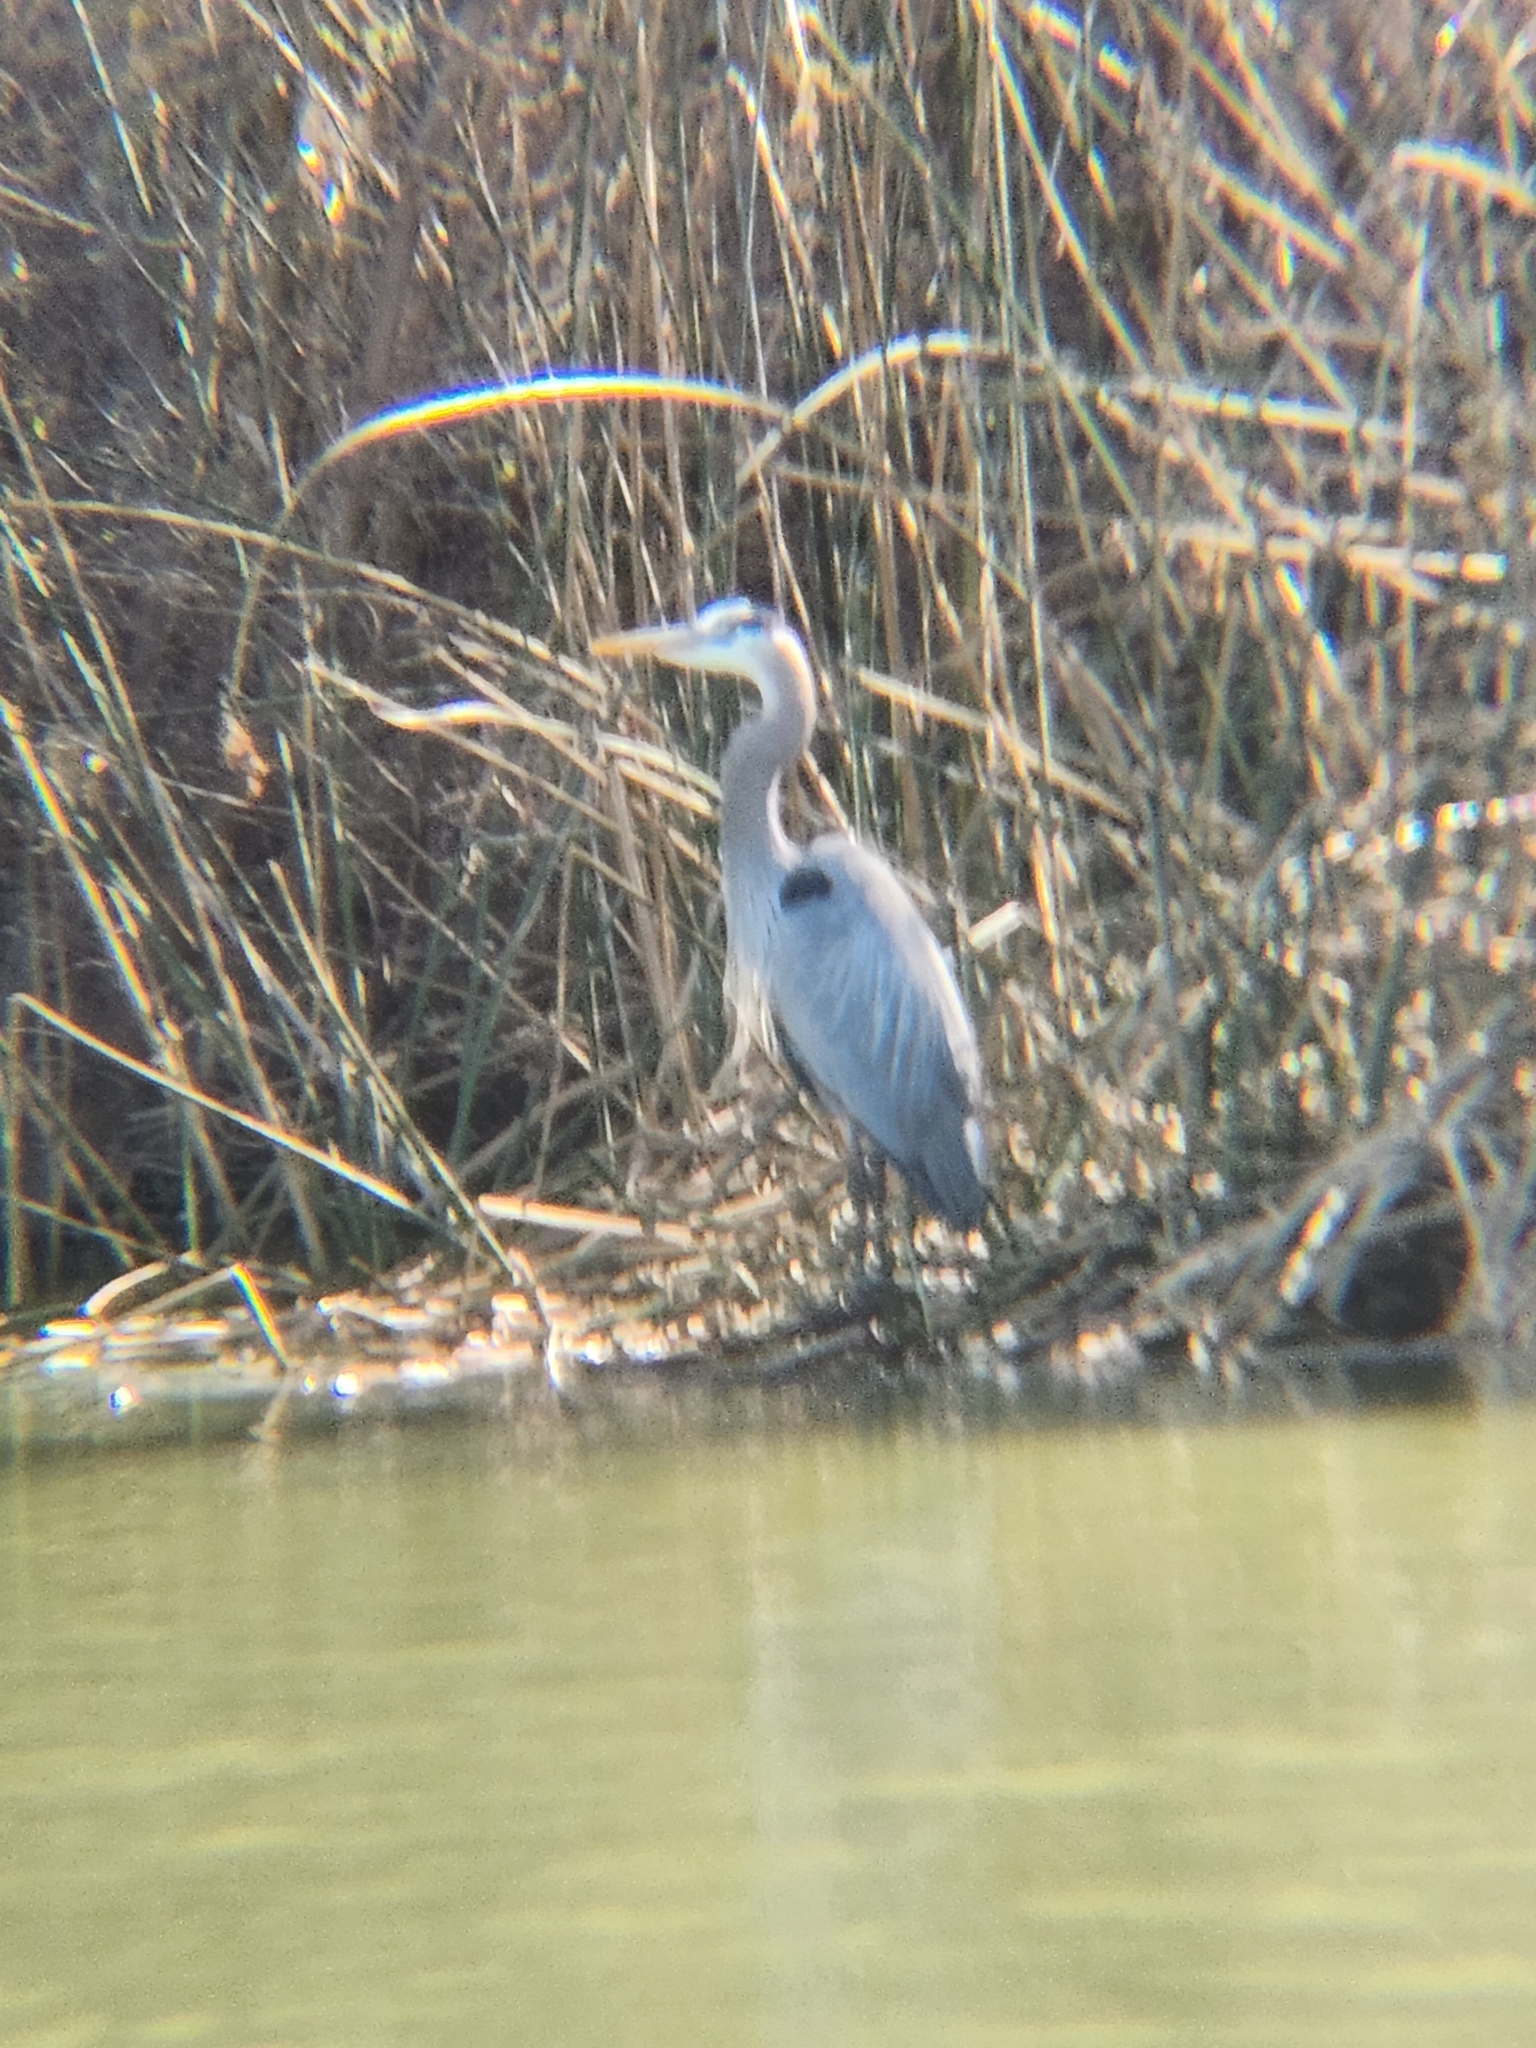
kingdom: Animalia
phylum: Chordata
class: Aves
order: Pelecaniformes
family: Ardeidae
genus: Ardea
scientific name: Ardea herodias
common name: Great blue heron
